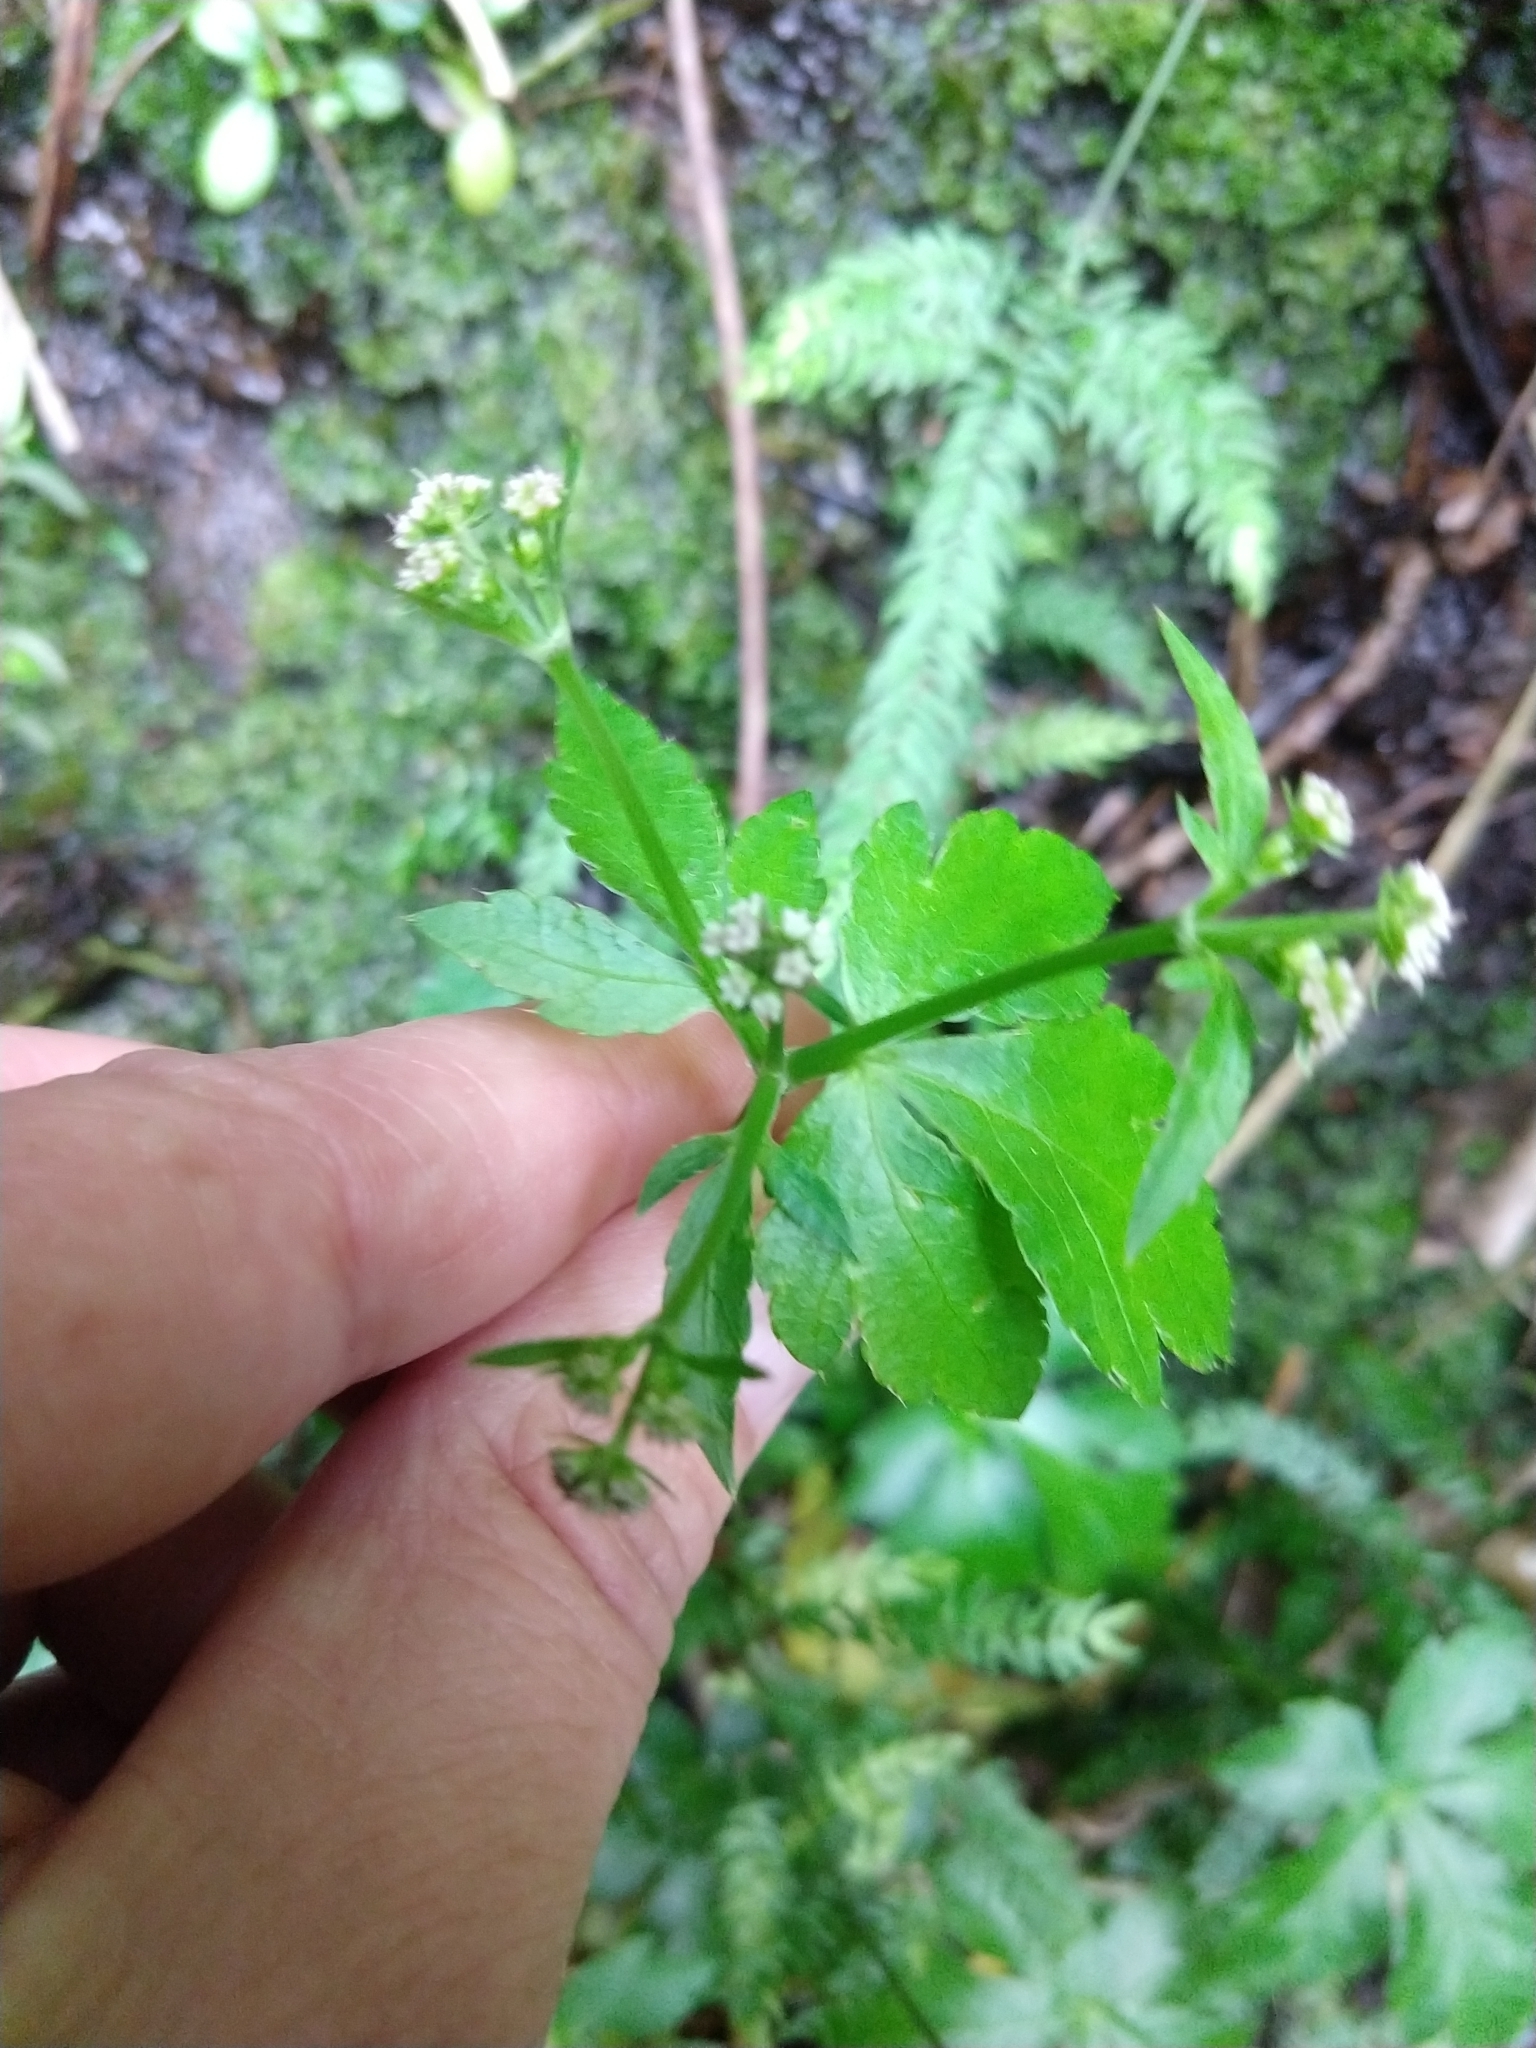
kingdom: Plantae
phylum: Tracheophyta
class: Magnoliopsida
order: Apiales
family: Apiaceae
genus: Sanicula
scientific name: Sanicula elata
